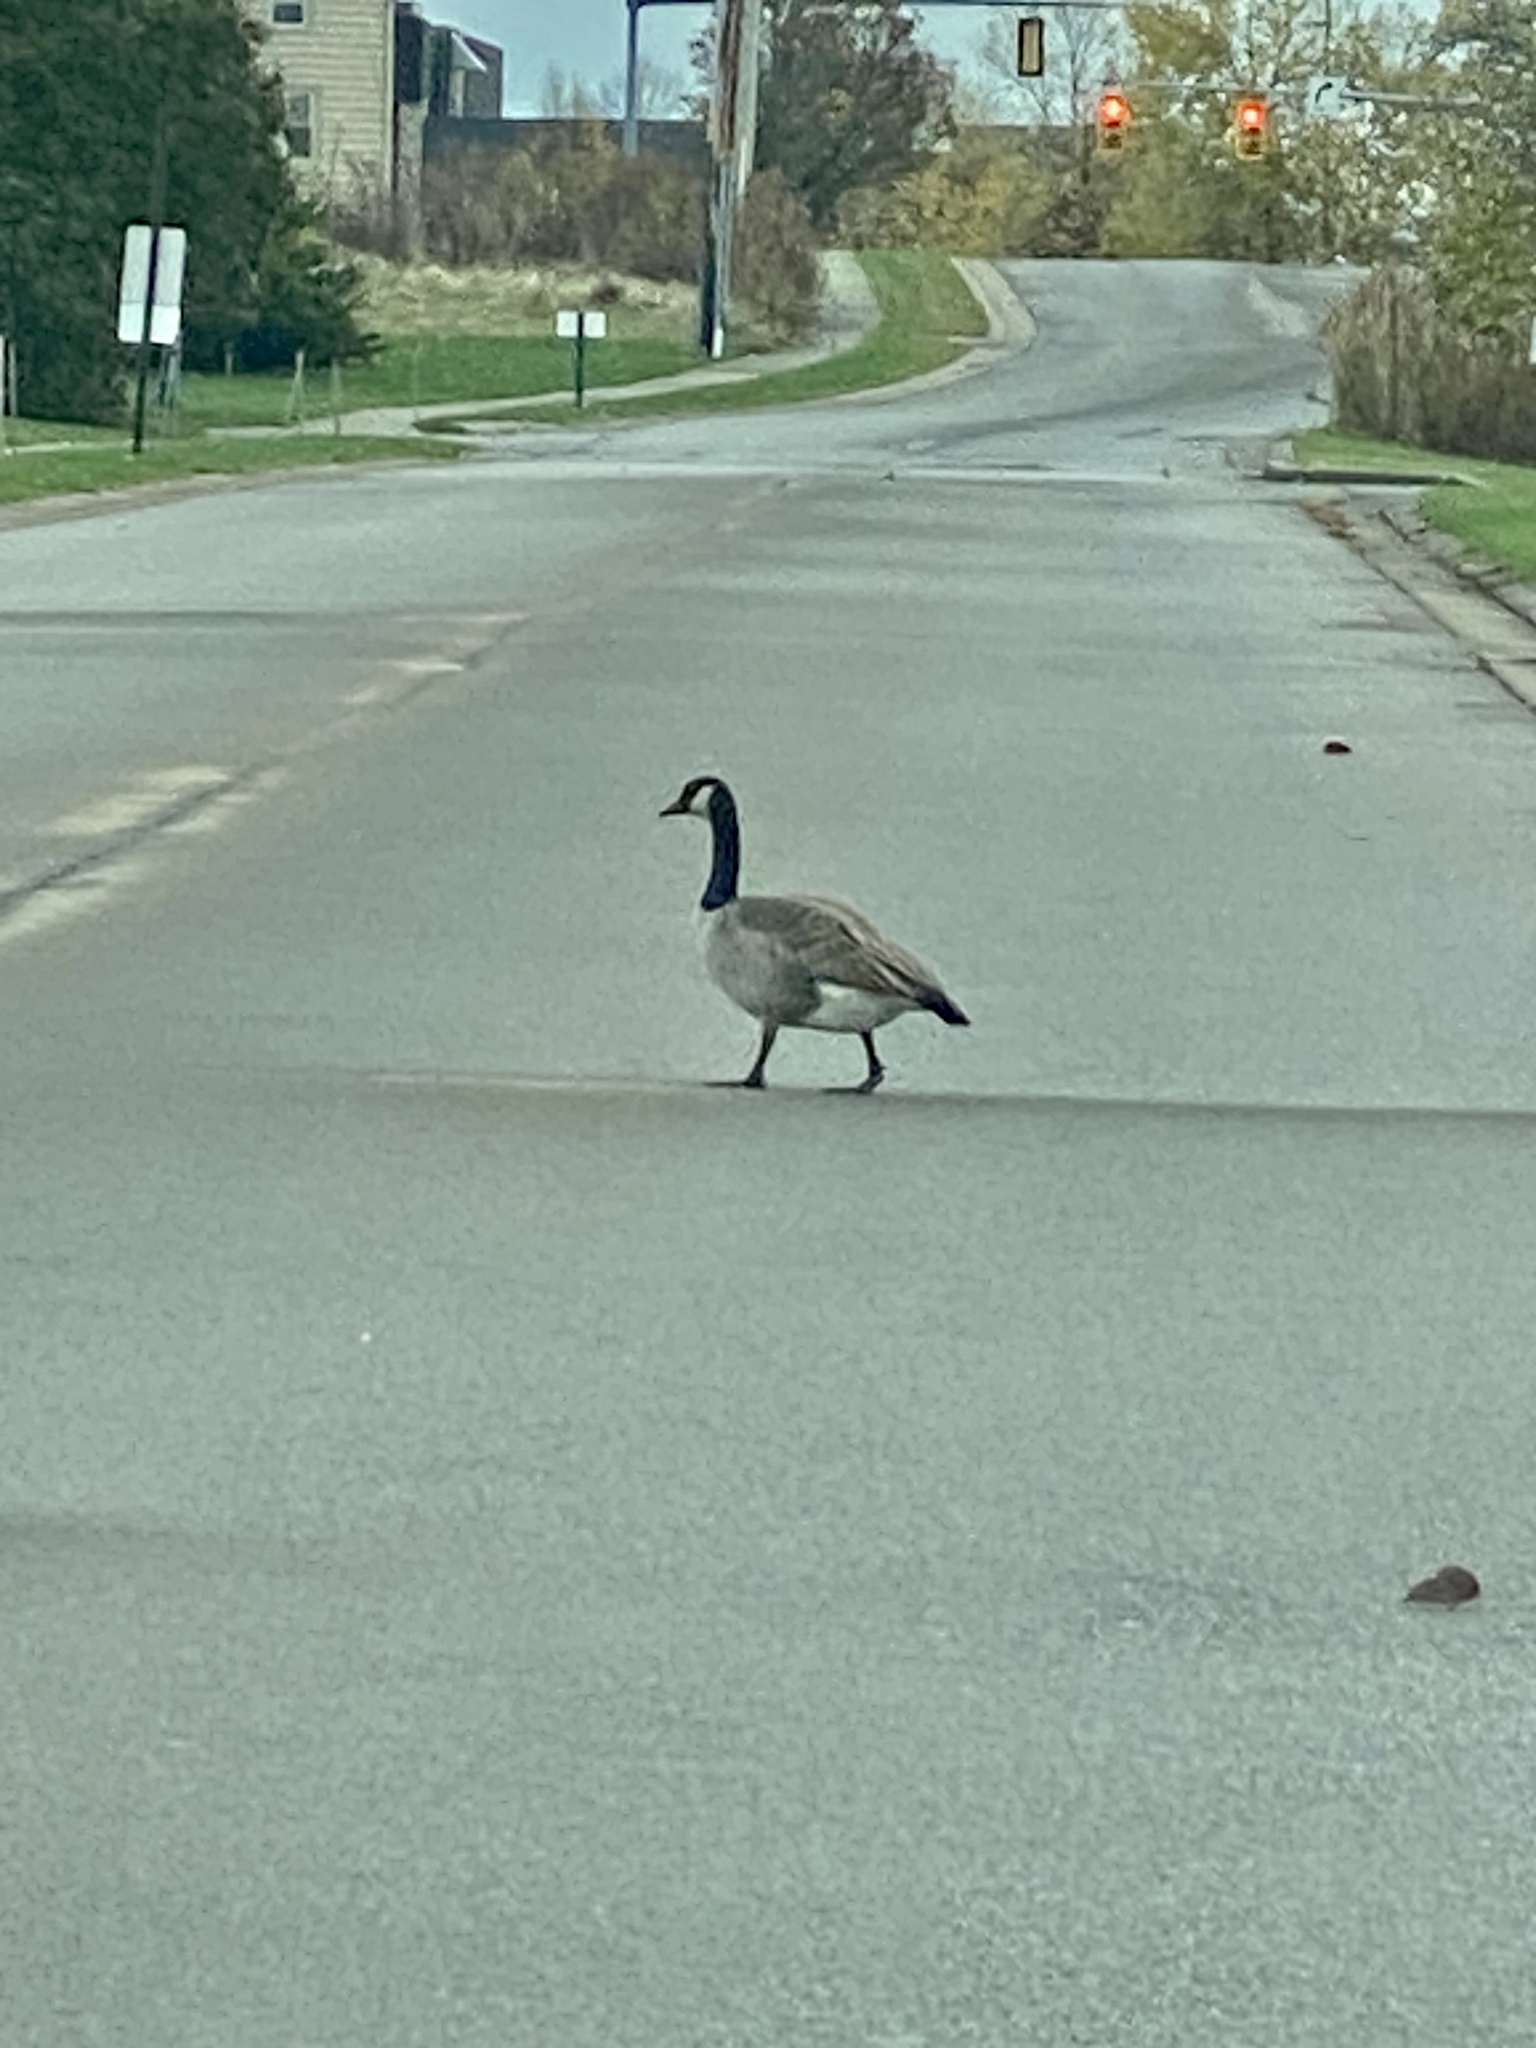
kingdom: Animalia
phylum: Chordata
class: Aves
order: Anseriformes
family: Anatidae
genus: Branta
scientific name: Branta canadensis
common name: Canada goose
